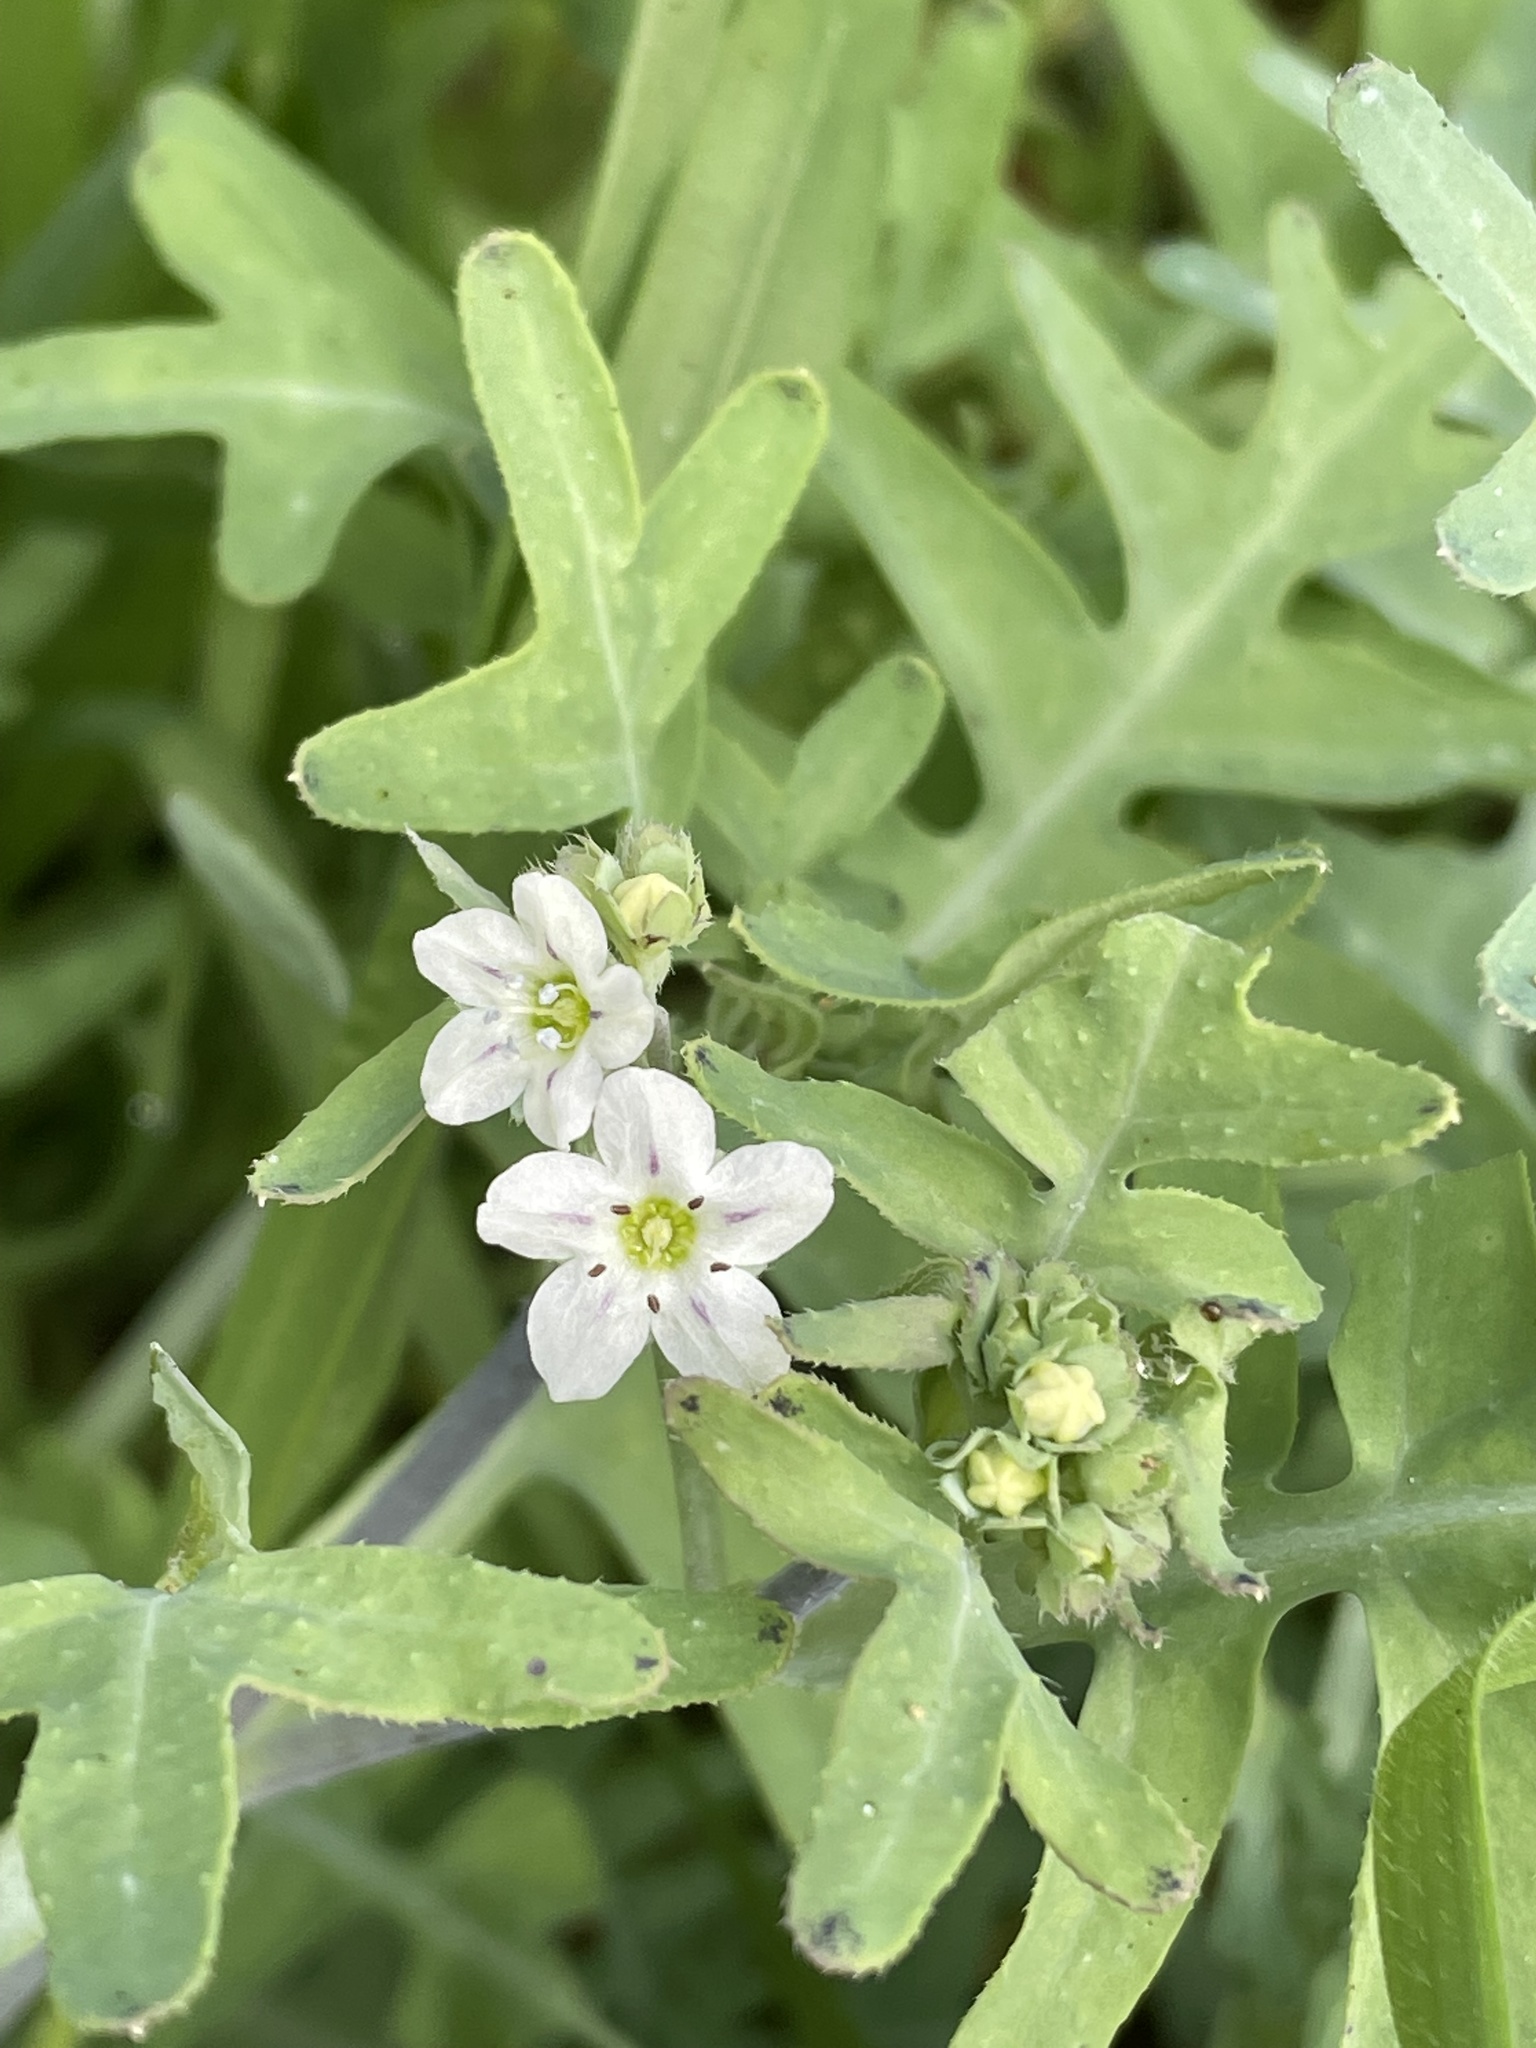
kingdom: Plantae
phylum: Tracheophyta
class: Magnoliopsida
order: Boraginales
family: Hydrophyllaceae
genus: Pholistoma
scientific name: Pholistoma membranaceum
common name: White fiesta-flower
